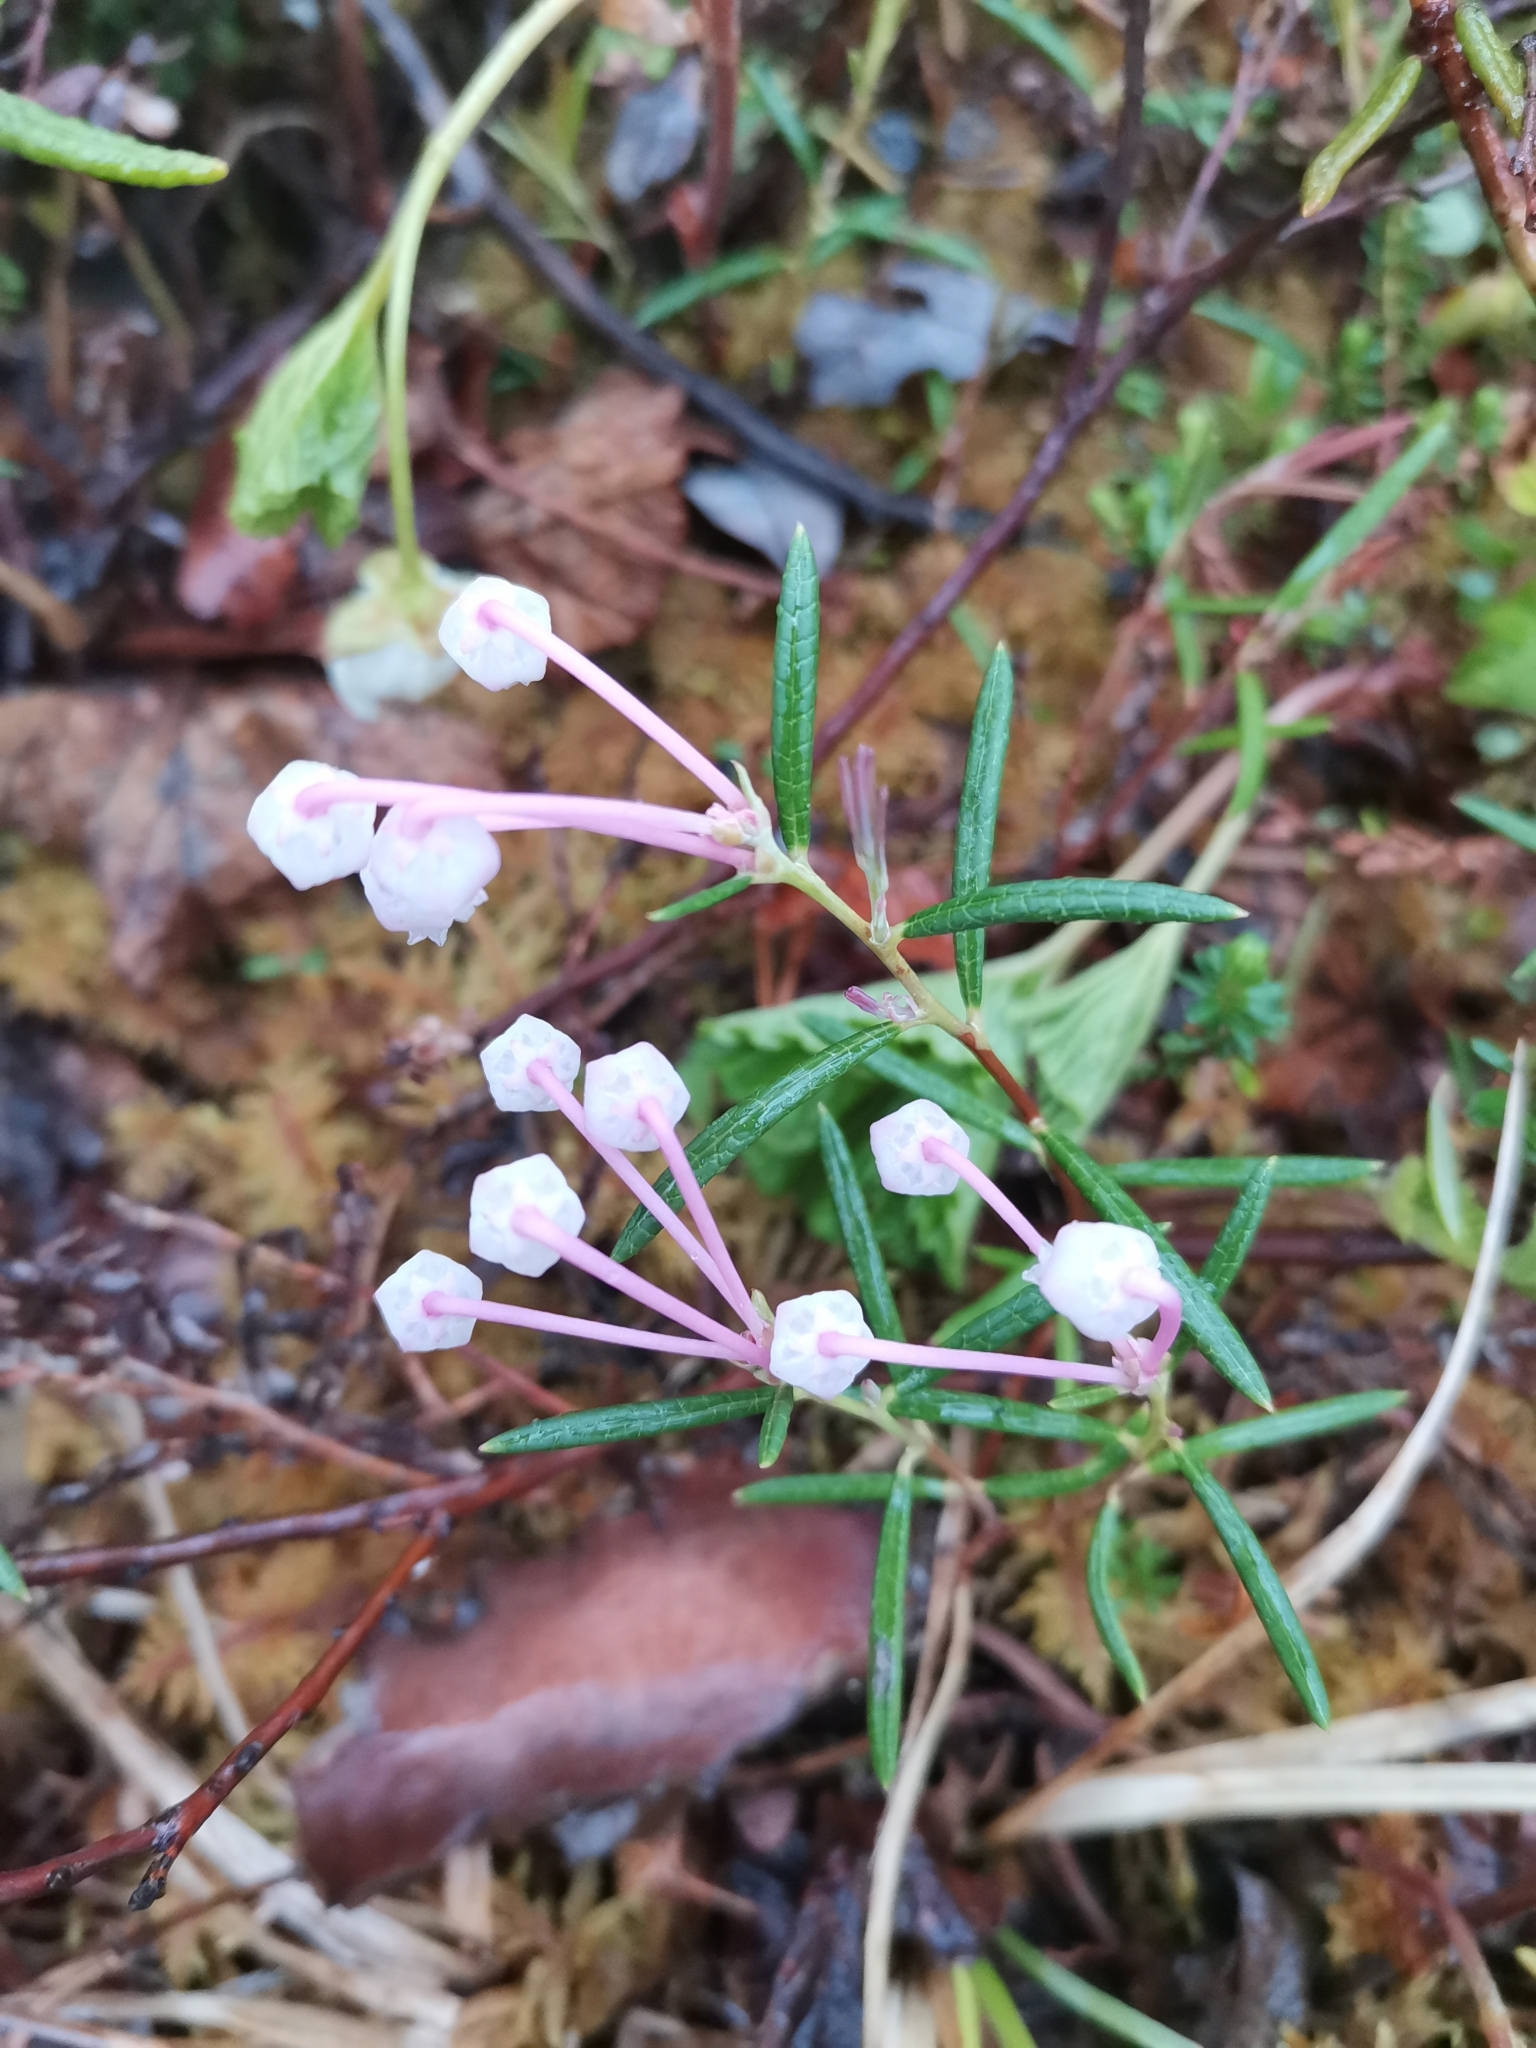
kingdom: Plantae
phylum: Tracheophyta
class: Magnoliopsida
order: Ericales
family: Ericaceae
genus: Andromeda
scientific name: Andromeda polifolia
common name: Bog-rosemary
